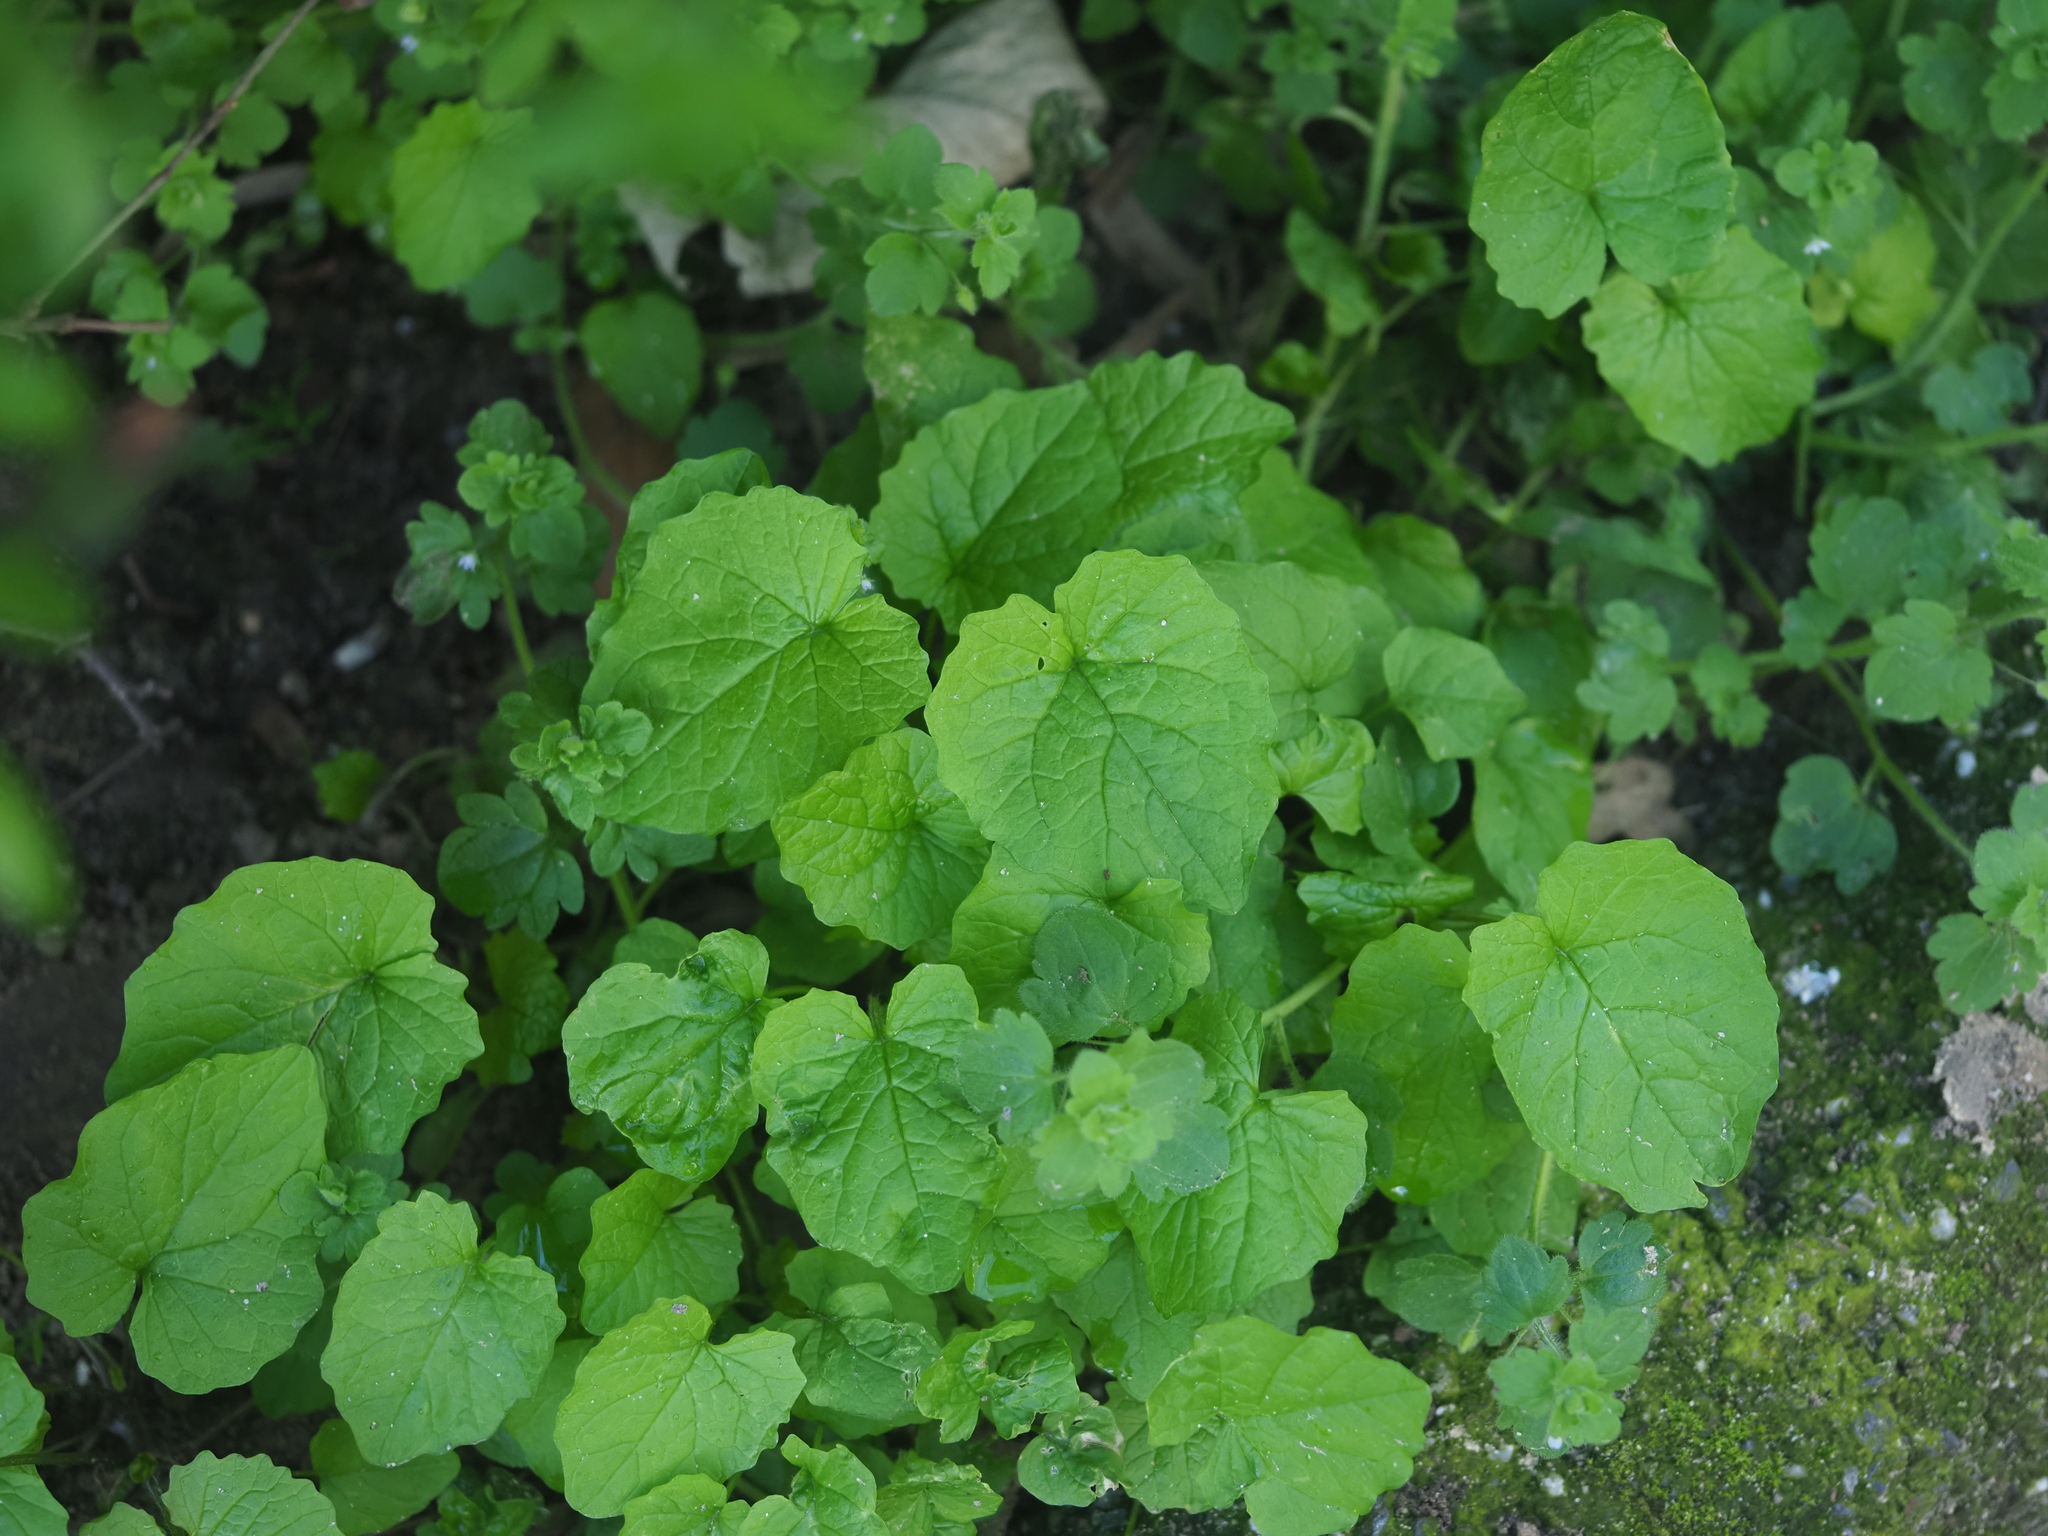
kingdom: Plantae
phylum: Tracheophyta
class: Magnoliopsida
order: Brassicales
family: Brassicaceae
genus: Alliaria
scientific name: Alliaria petiolata
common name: Garlic mustard
